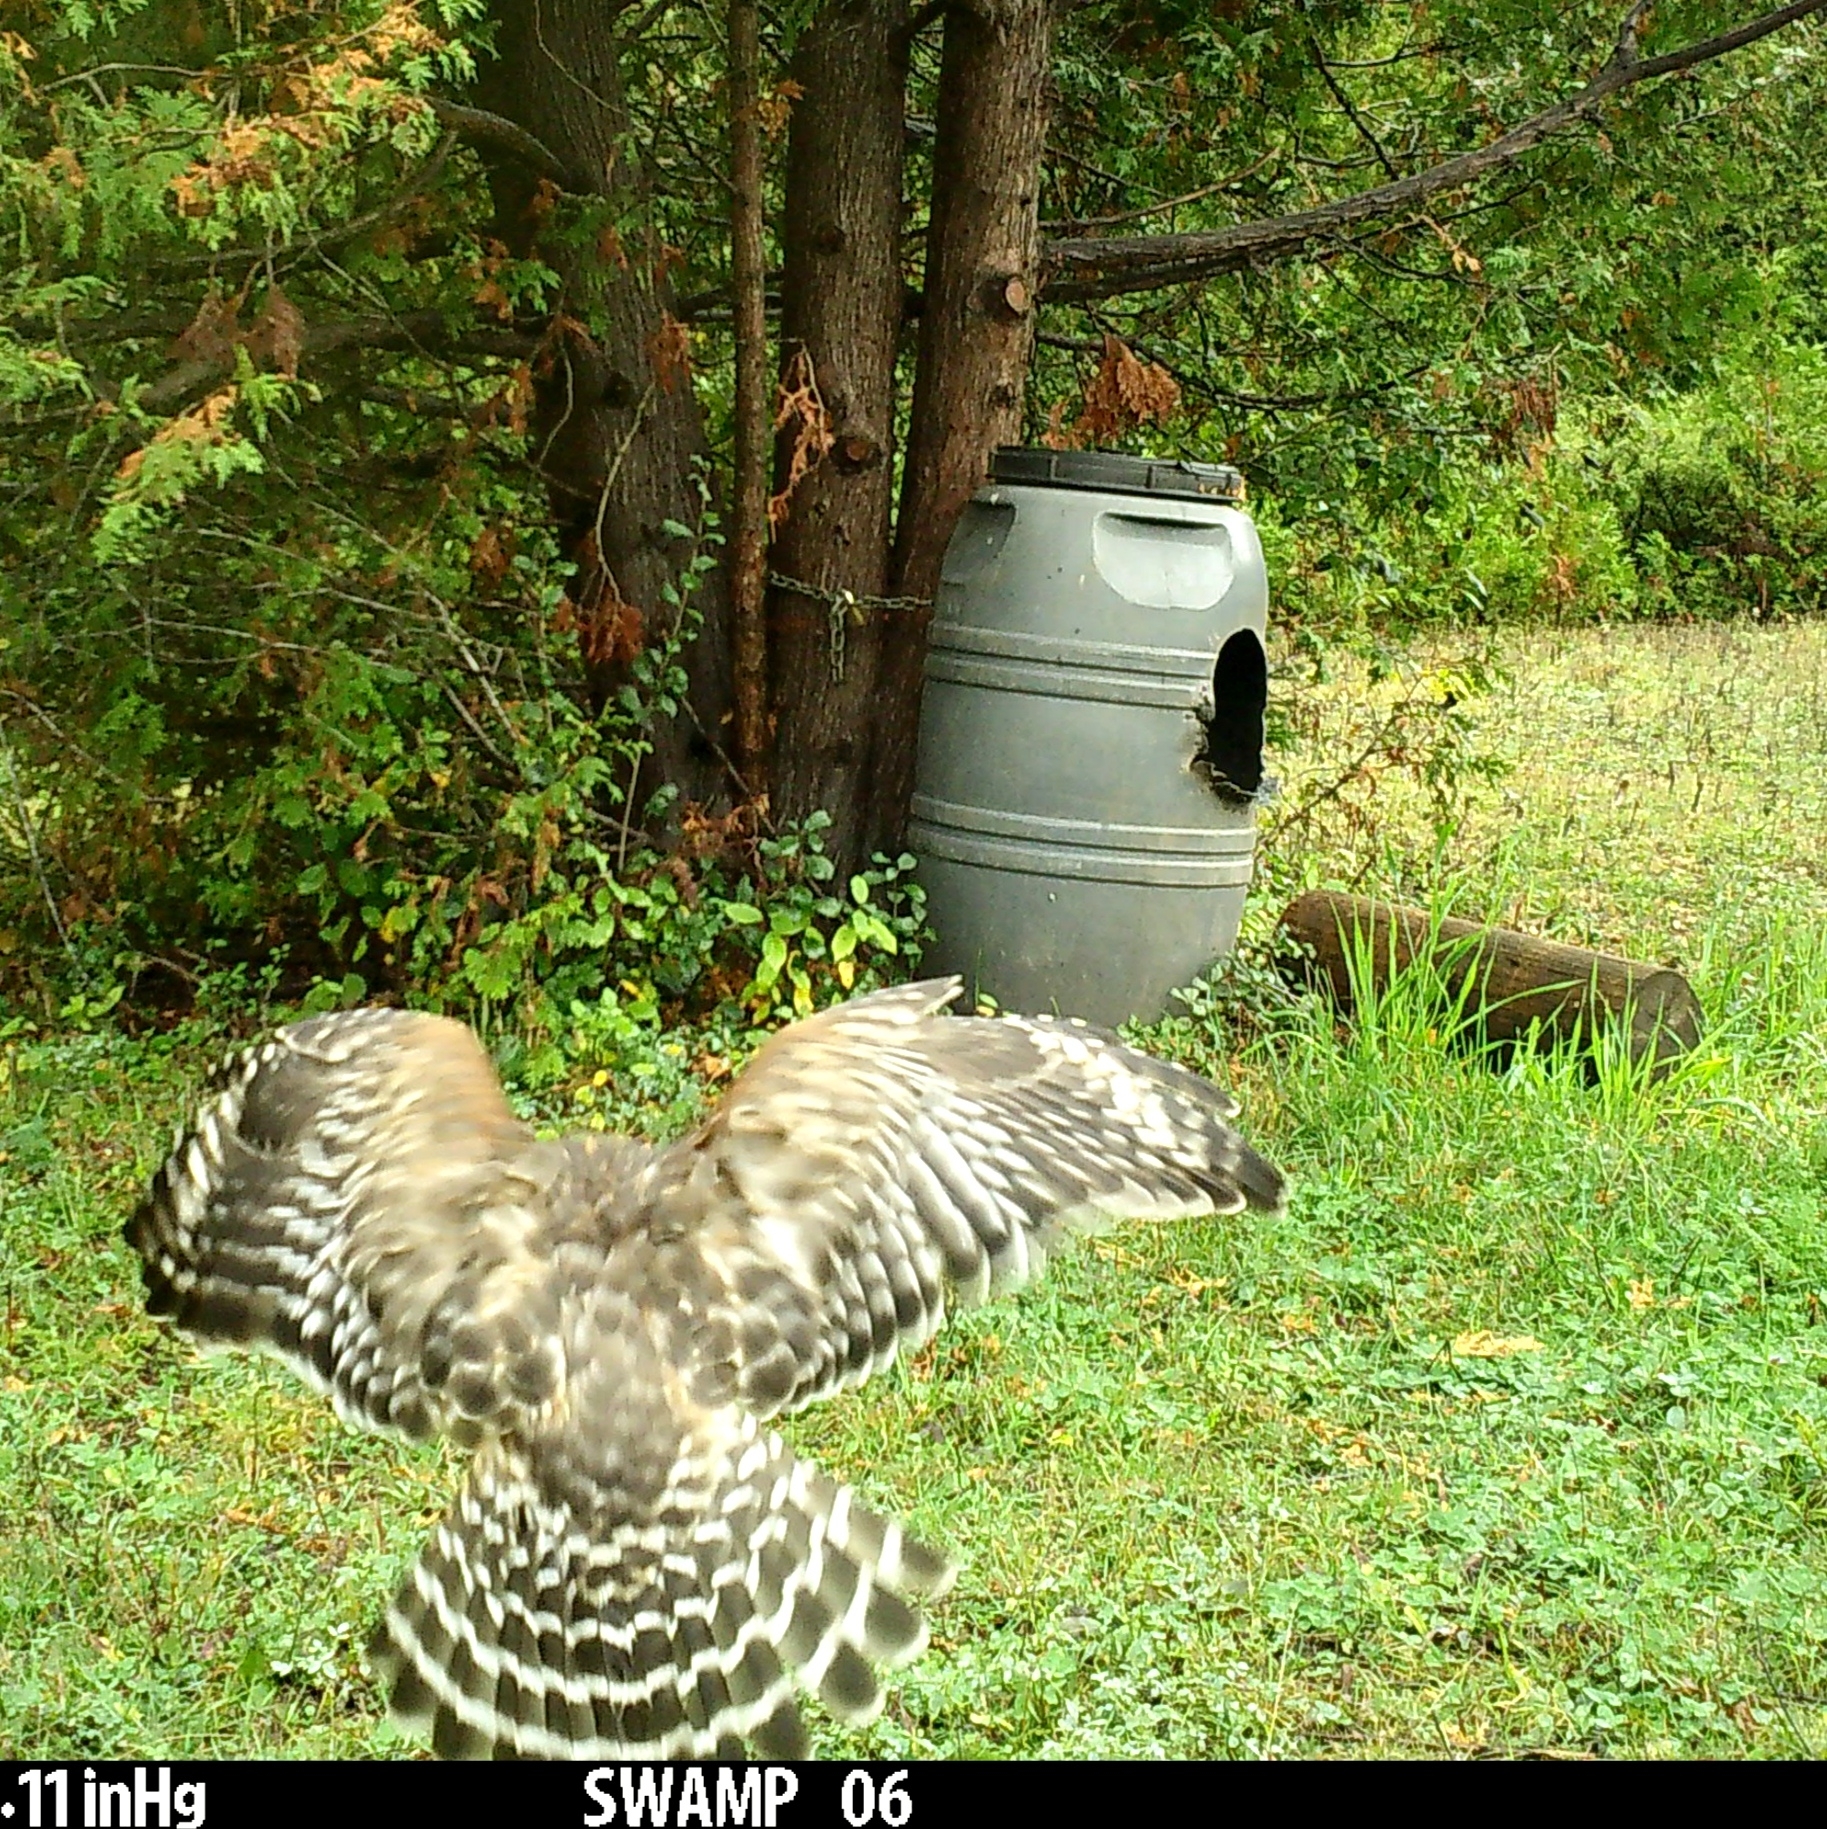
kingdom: Animalia
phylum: Chordata
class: Aves
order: Accipitriformes
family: Accipitridae
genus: Buteo
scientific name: Buteo lineatus
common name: Red-shouldered hawk
